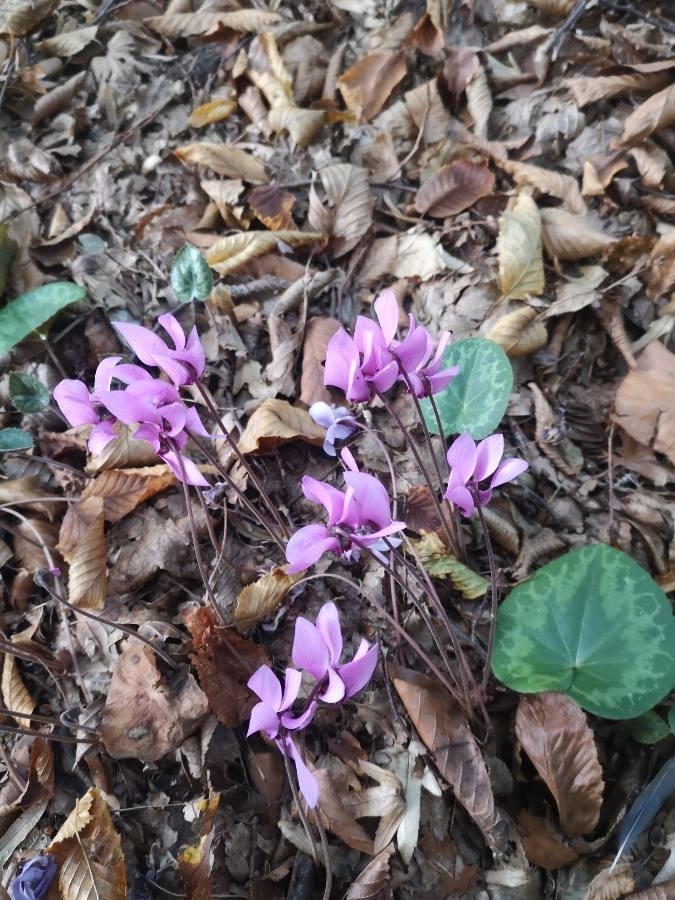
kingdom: Plantae
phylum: Tracheophyta
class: Magnoliopsida
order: Ericales
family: Primulaceae
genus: Cyclamen
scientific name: Cyclamen purpurascens
